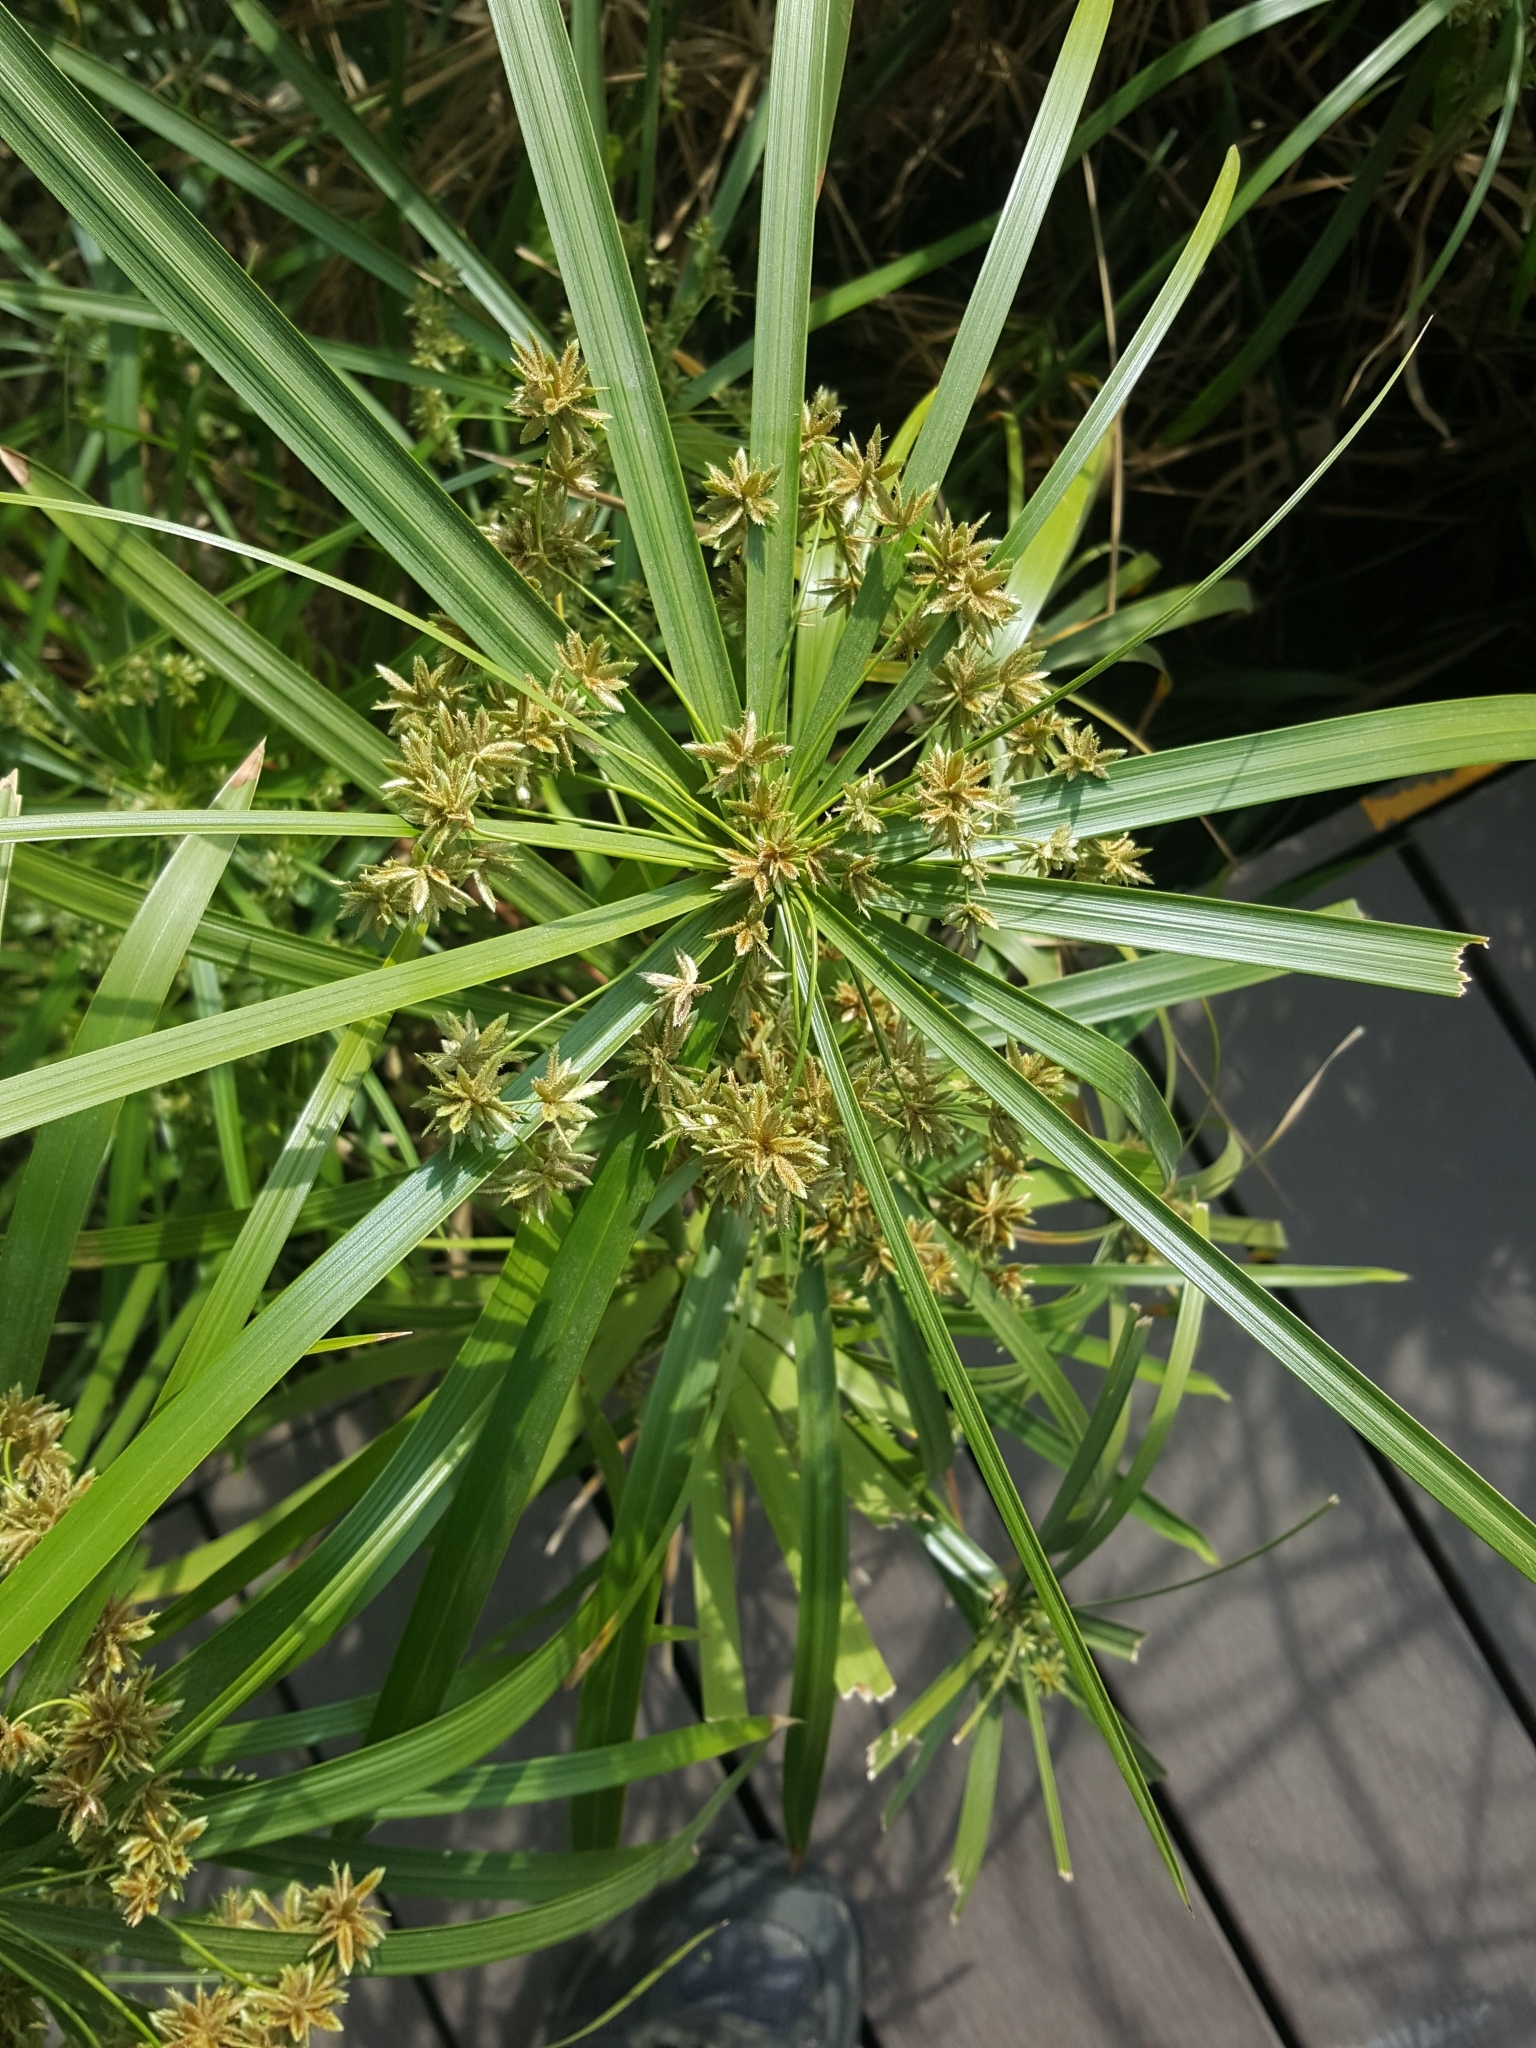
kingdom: Plantae
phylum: Tracheophyta
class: Liliopsida
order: Poales
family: Cyperaceae
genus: Cyperus
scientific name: Cyperus alternifolius
